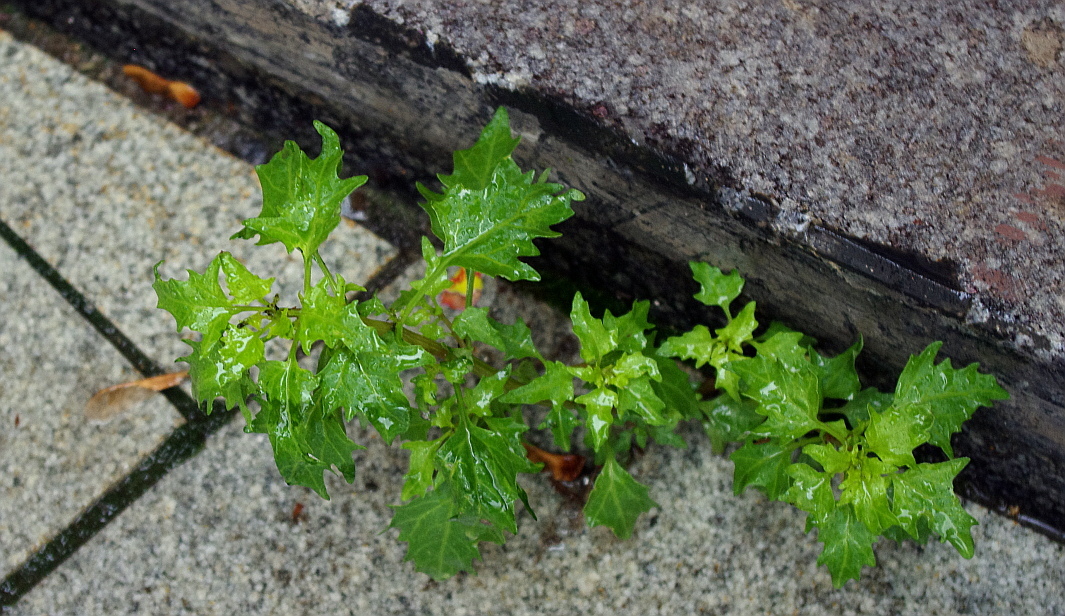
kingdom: Plantae
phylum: Tracheophyta
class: Magnoliopsida
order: Caryophyllales
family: Amaranthaceae
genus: Oxybasis
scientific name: Oxybasis rubra
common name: Red goosefoot
